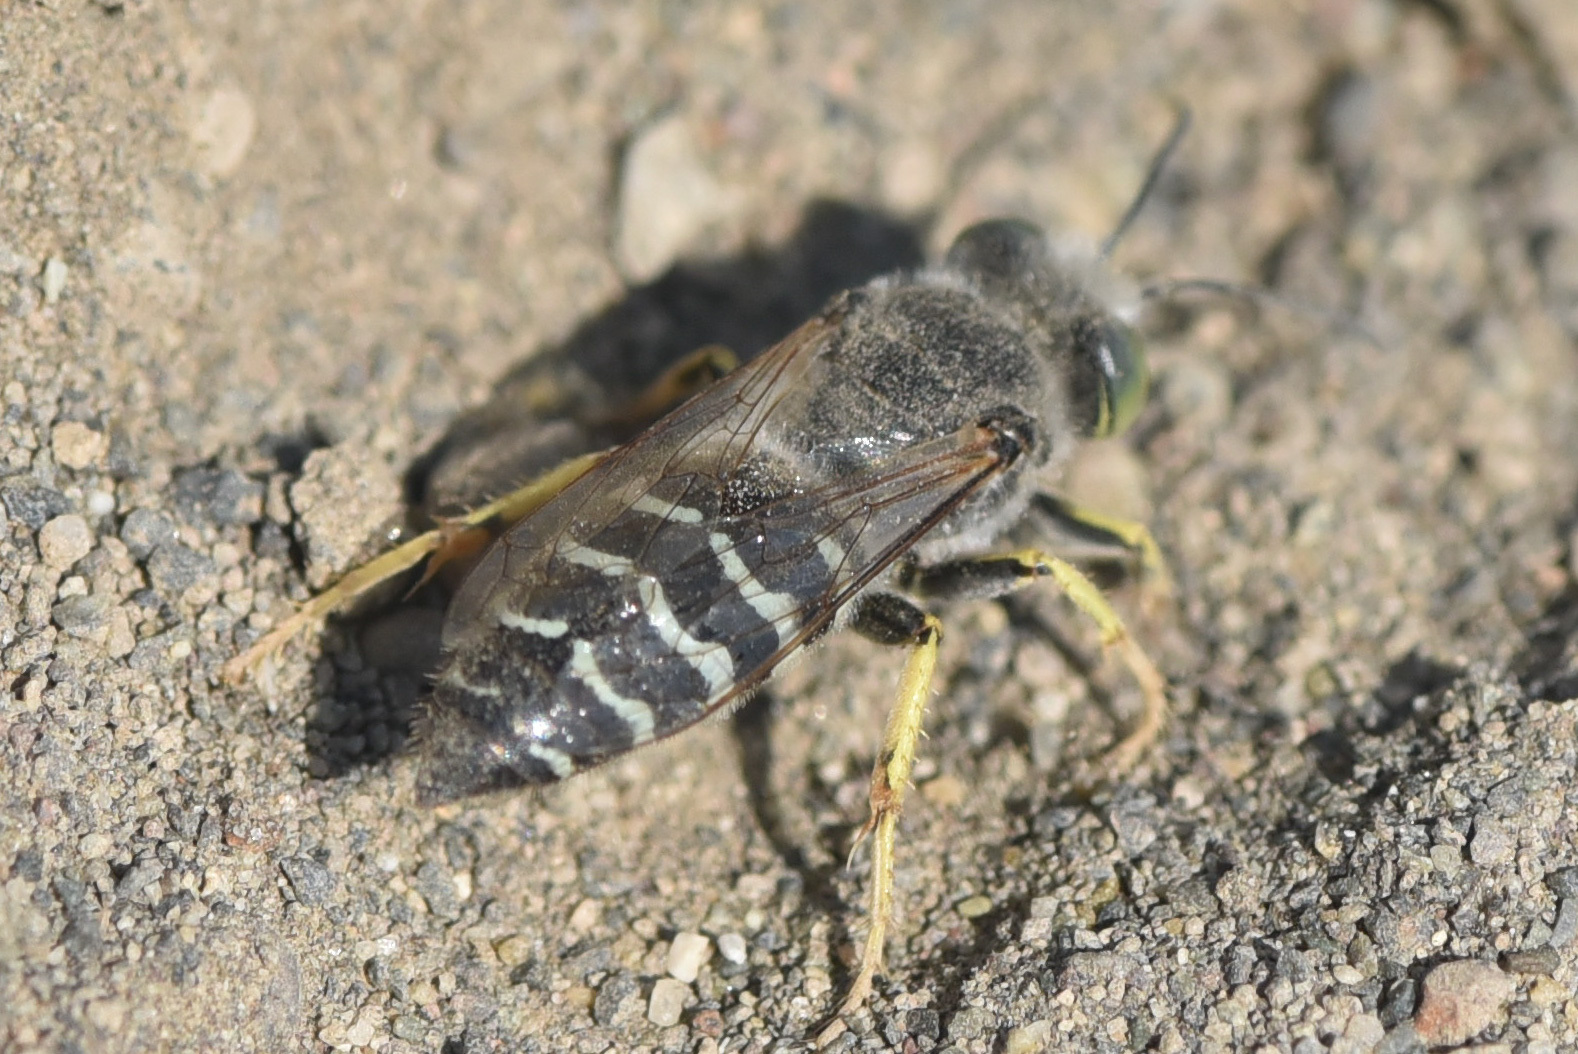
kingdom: Animalia
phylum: Arthropoda
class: Insecta
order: Hymenoptera
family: Crabronidae
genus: Bembix
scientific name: Bembix americana
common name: American sand wasp
